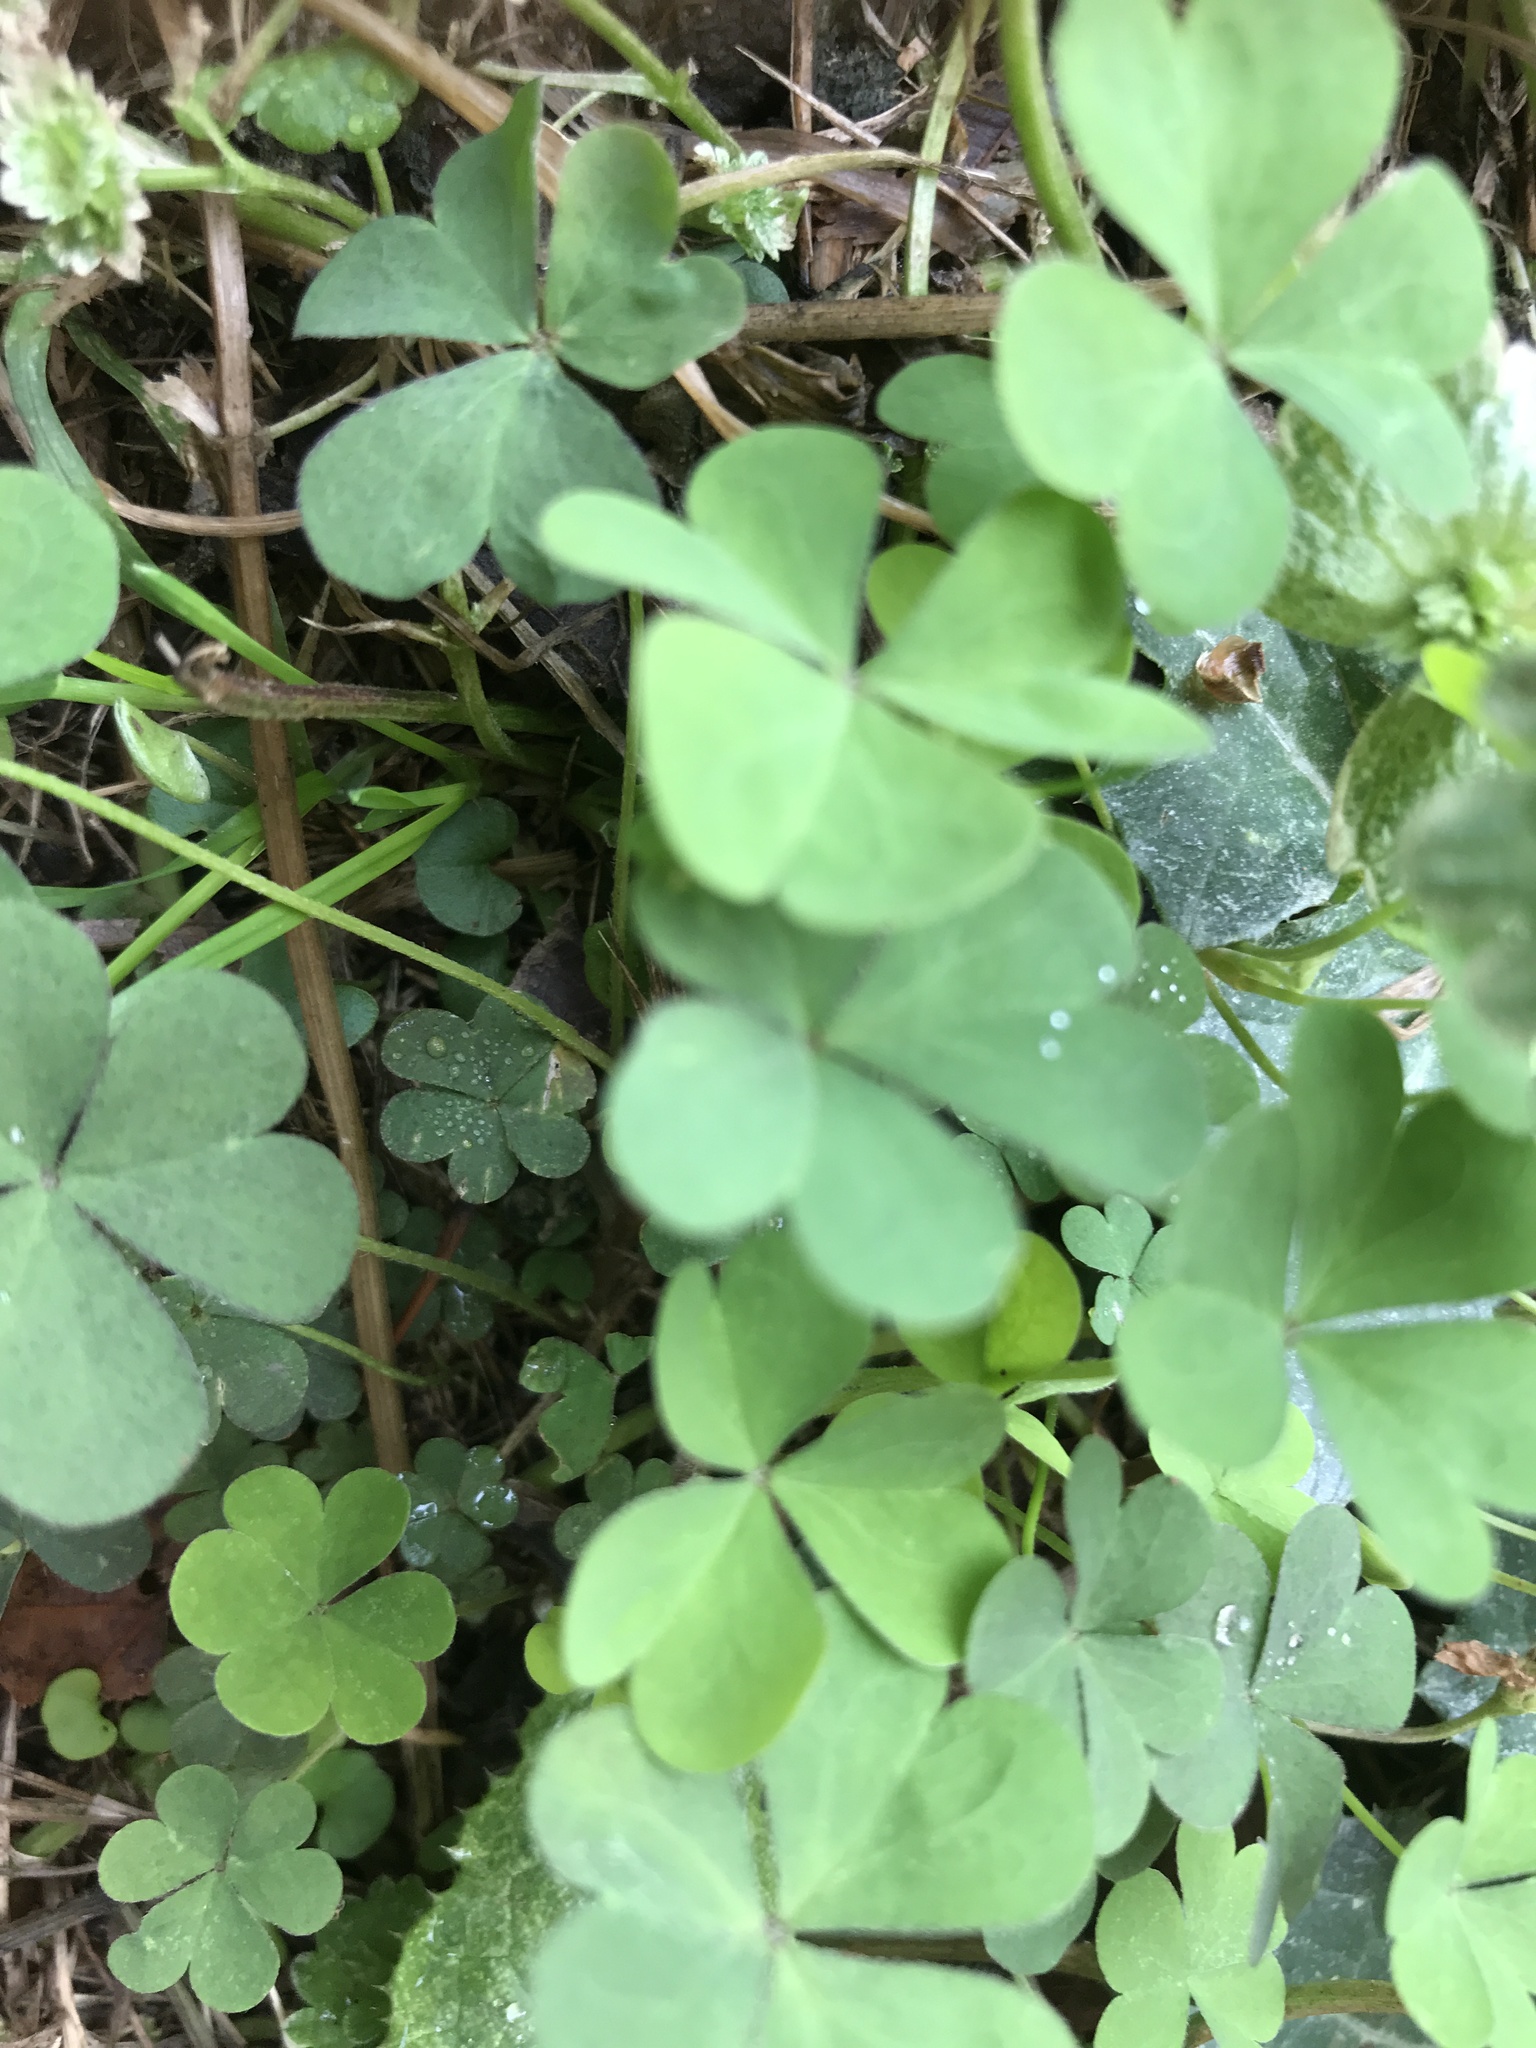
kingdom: Plantae
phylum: Tracheophyta
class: Magnoliopsida
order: Oxalidales
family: Oxalidaceae
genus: Oxalis
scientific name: Oxalis corniculata
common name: Procumbent yellow-sorrel
